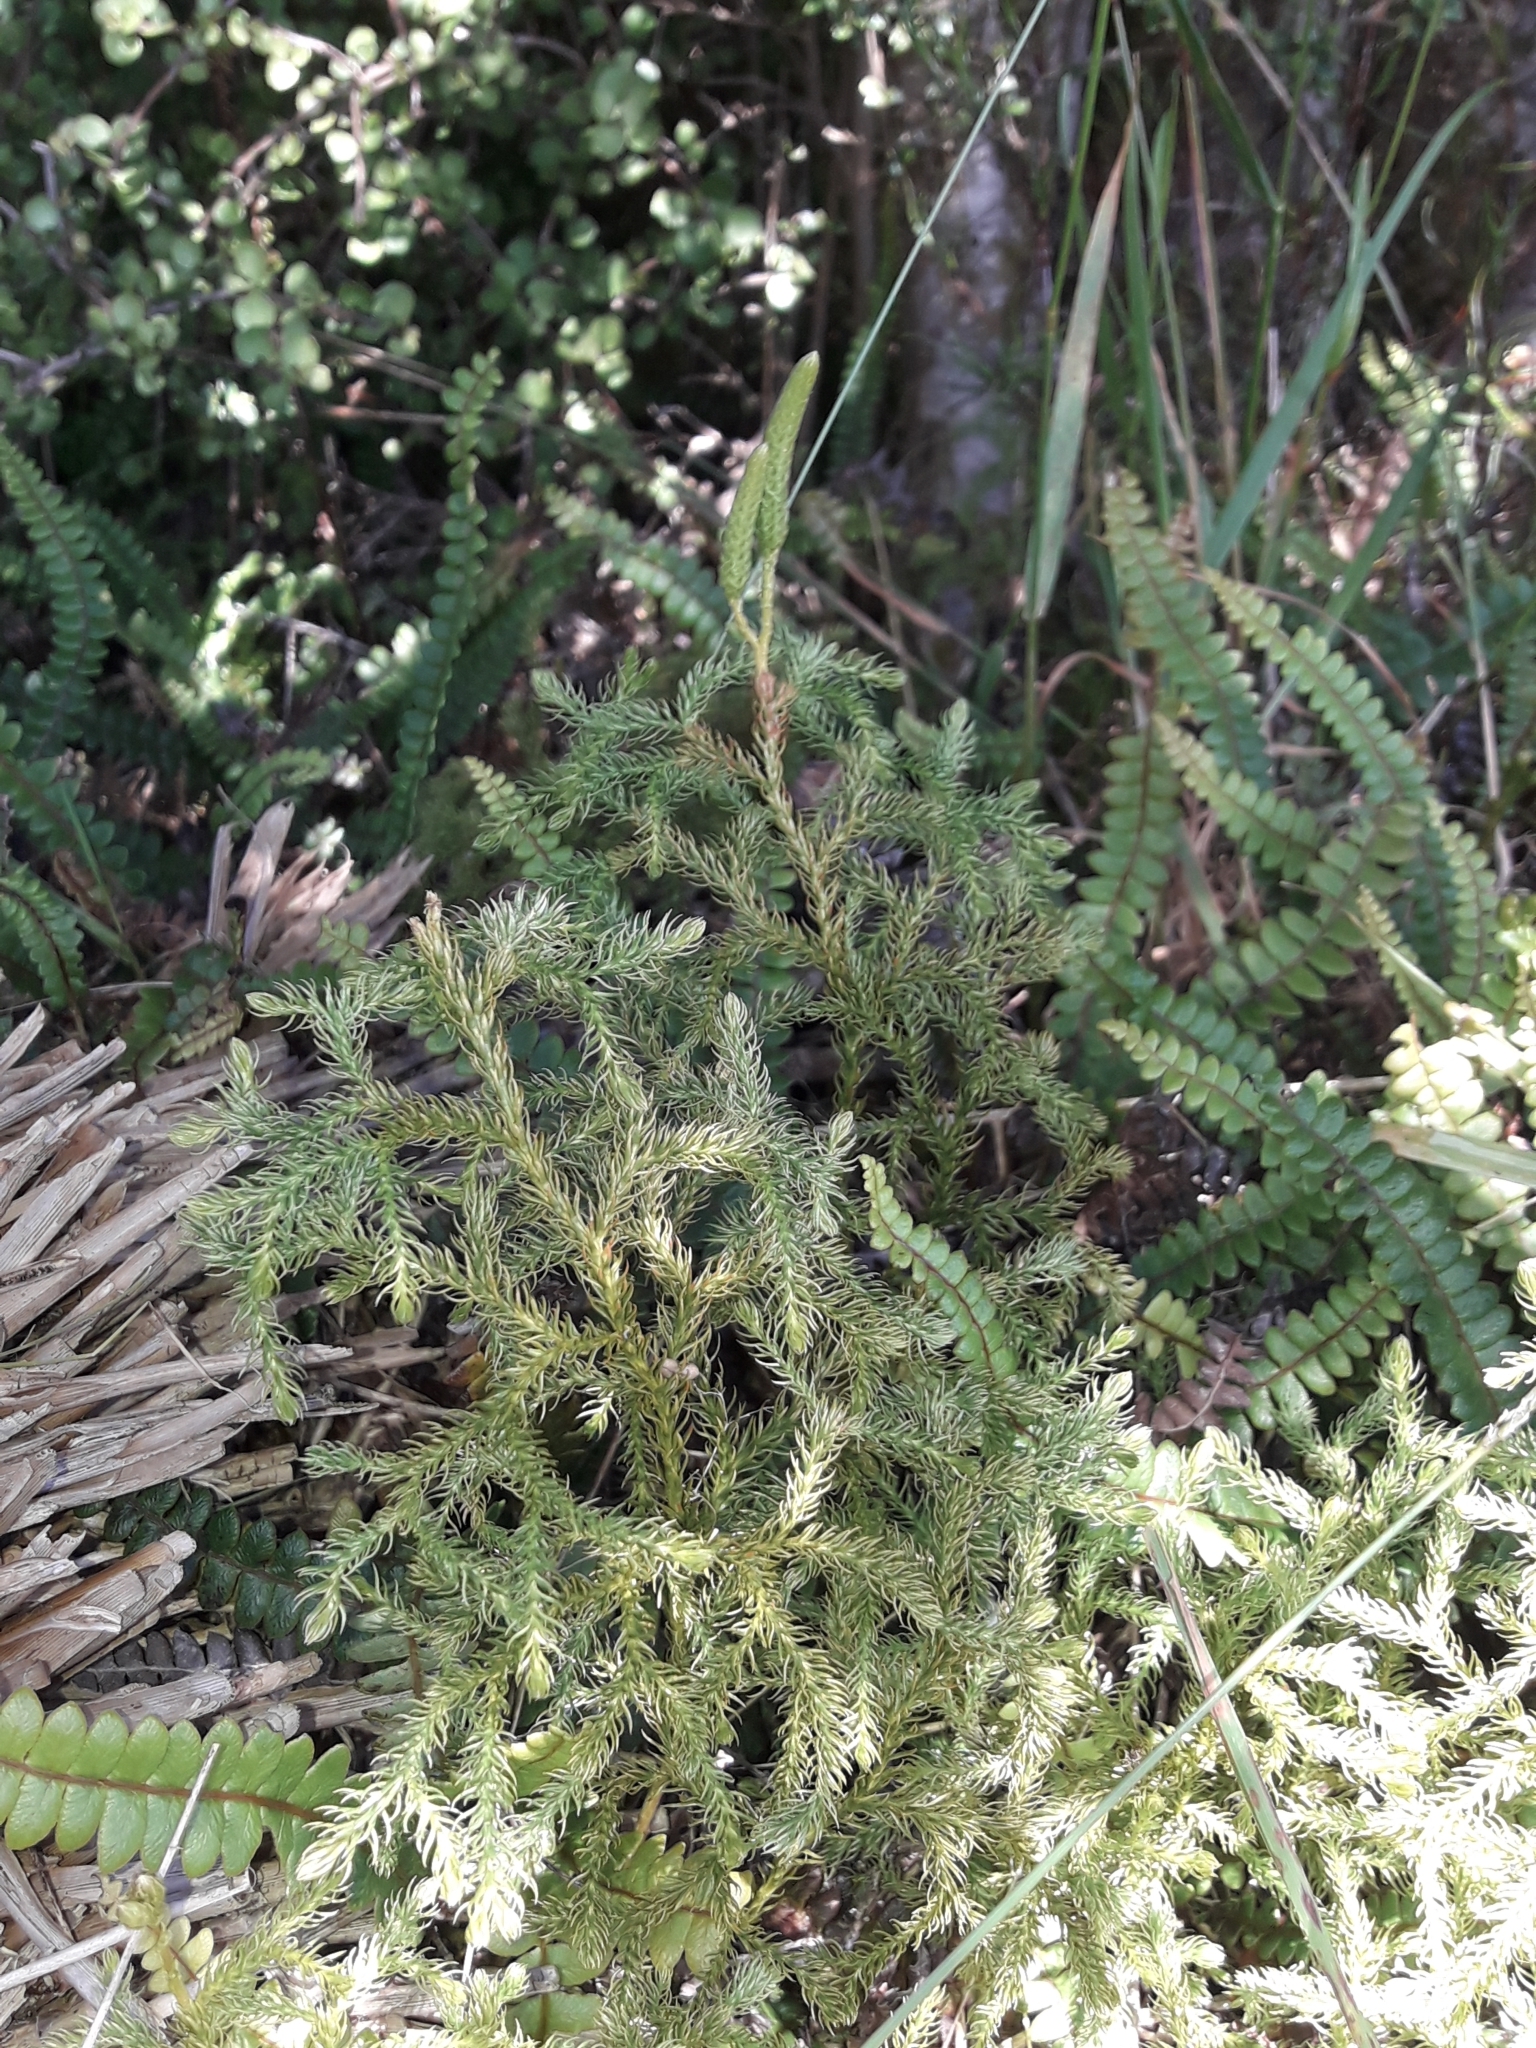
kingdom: Plantae
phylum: Tracheophyta
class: Lycopodiopsida
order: Lycopodiales
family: Lycopodiaceae
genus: Austrolycopodium
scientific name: Austrolycopodium fastigiatum
